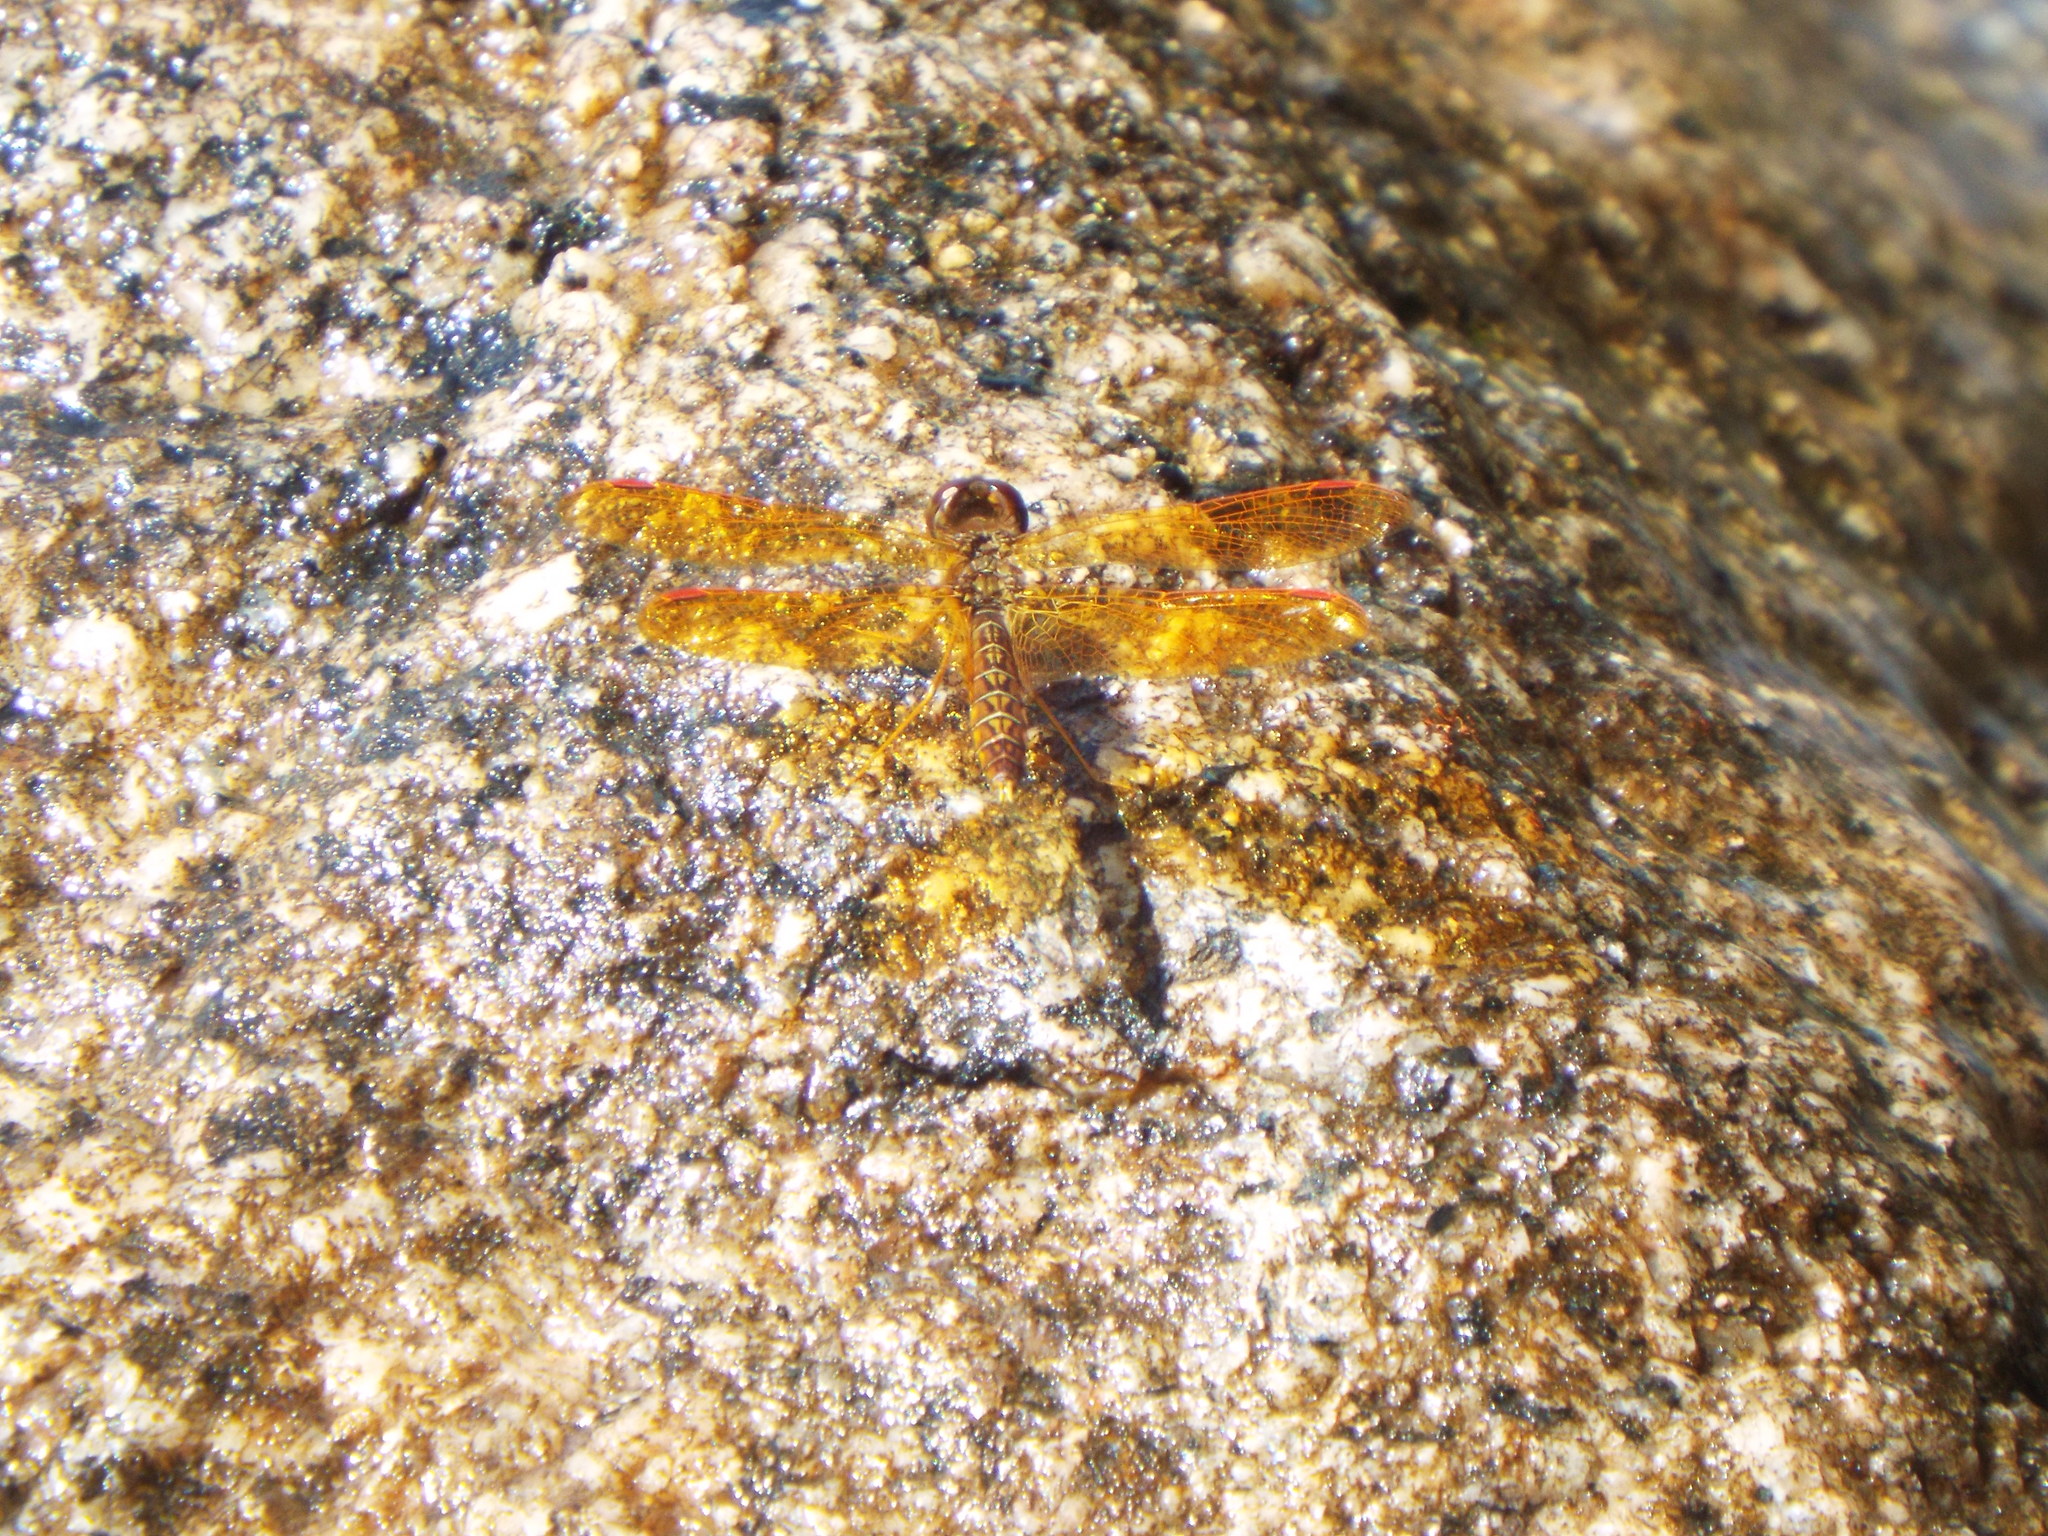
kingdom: Animalia
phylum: Arthropoda
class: Insecta
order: Odonata
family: Libellulidae
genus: Perithemis
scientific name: Perithemis tenera
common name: Eastern amberwing
